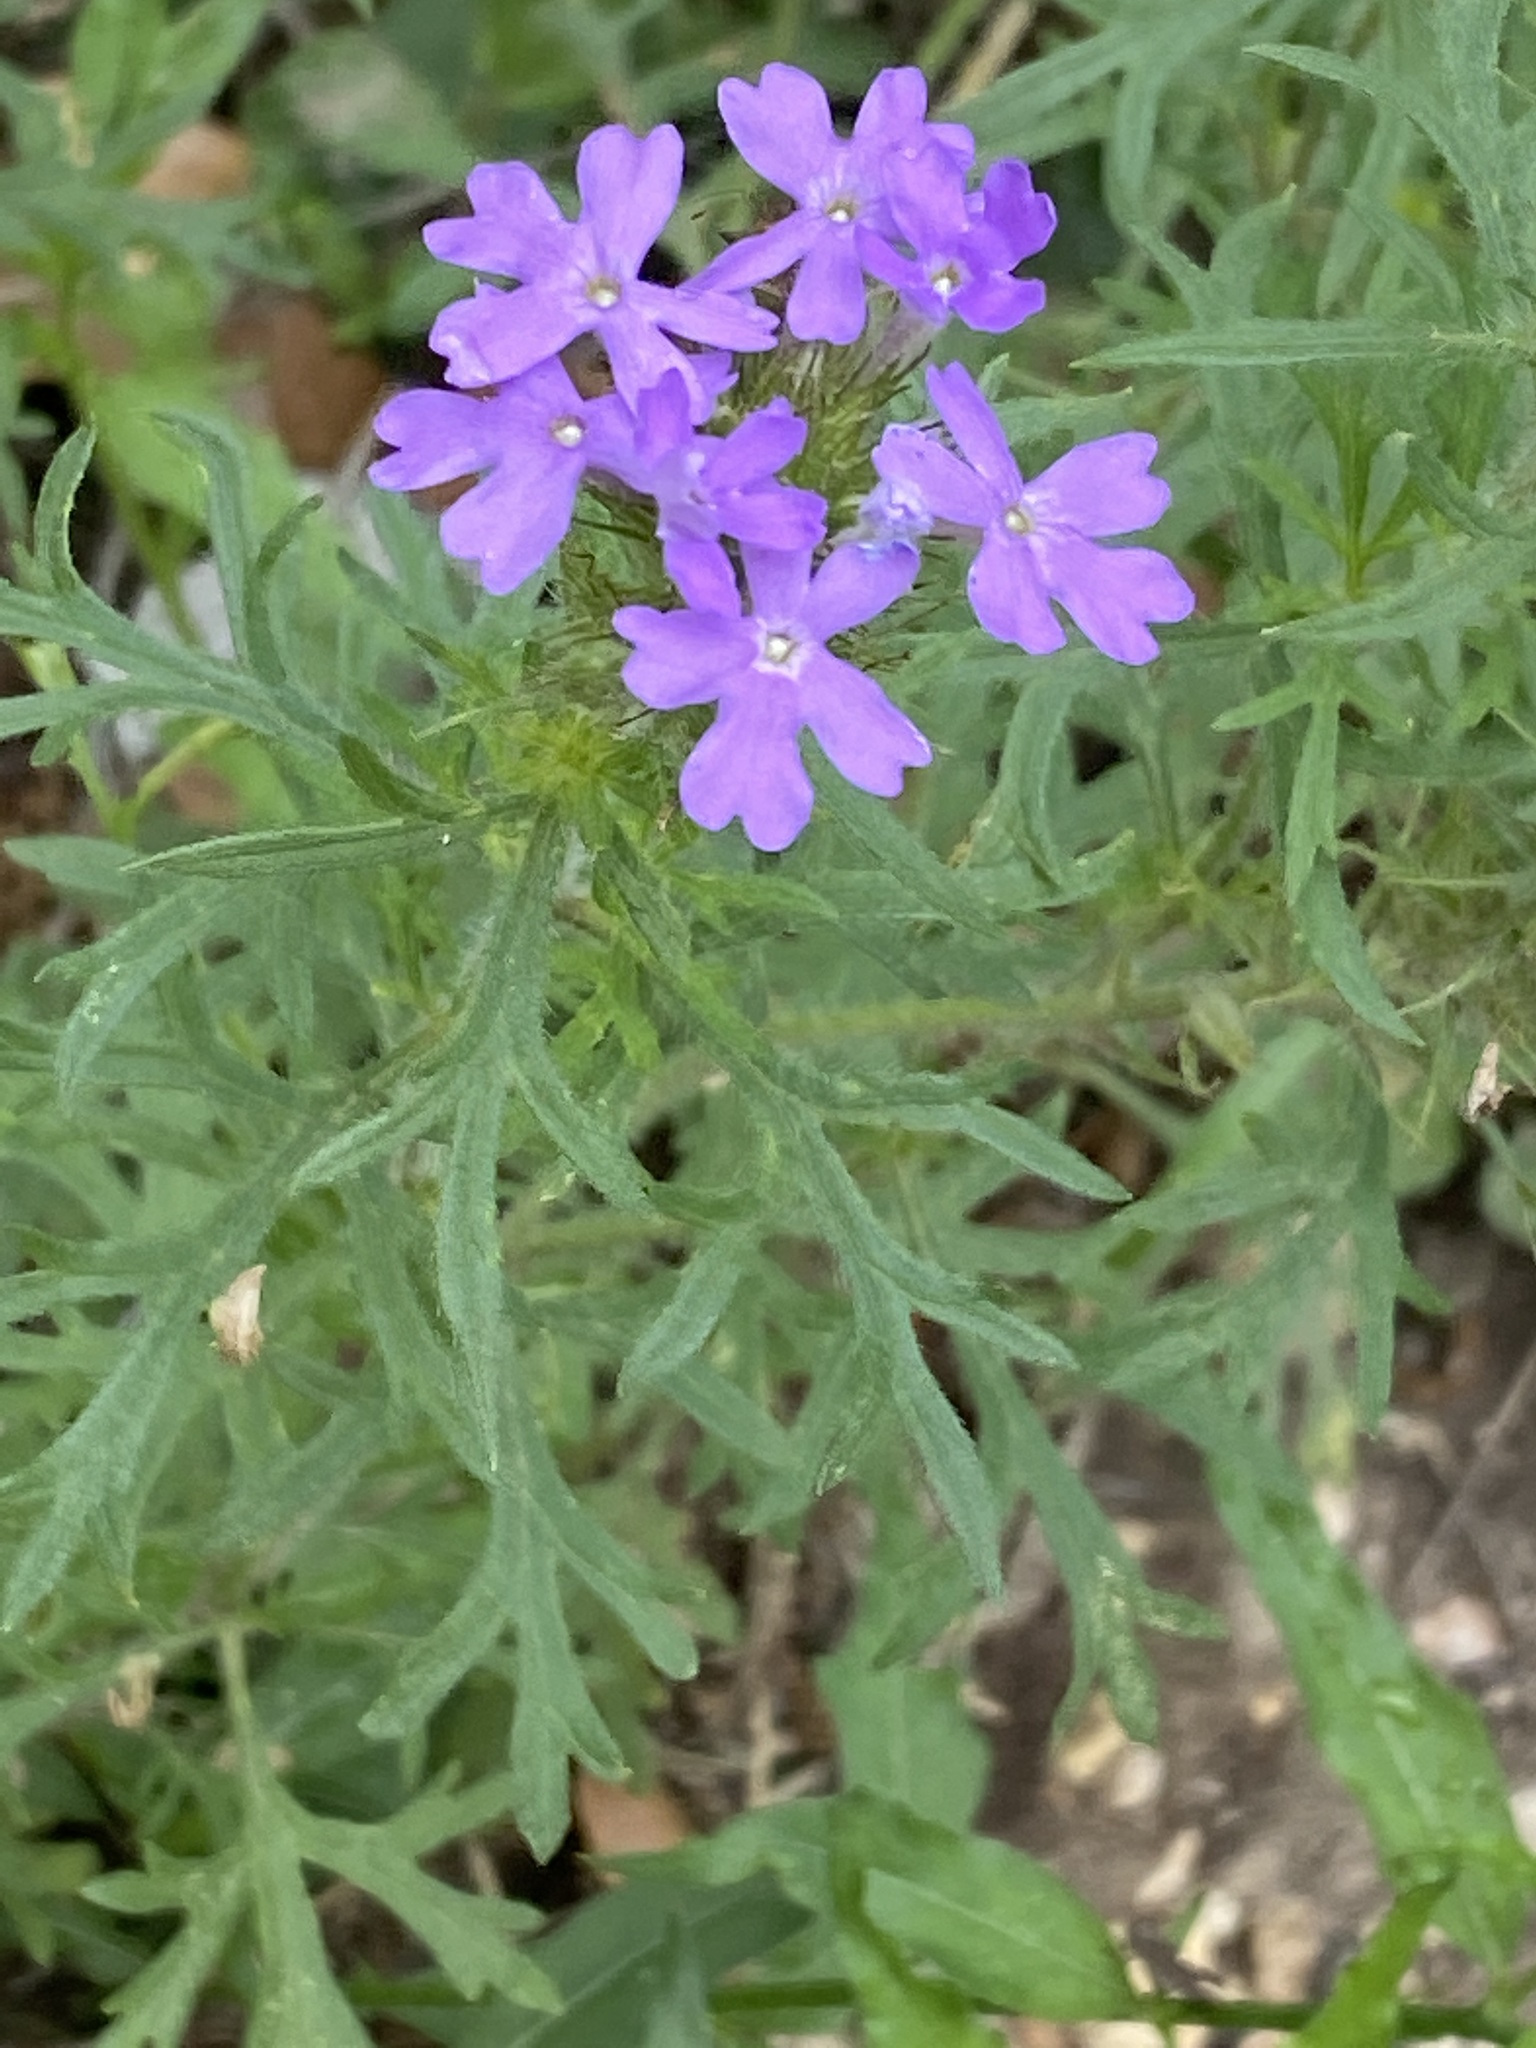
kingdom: Plantae
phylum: Tracheophyta
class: Magnoliopsida
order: Lamiales
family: Verbenaceae
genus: Verbena
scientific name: Verbena bipinnatifida
